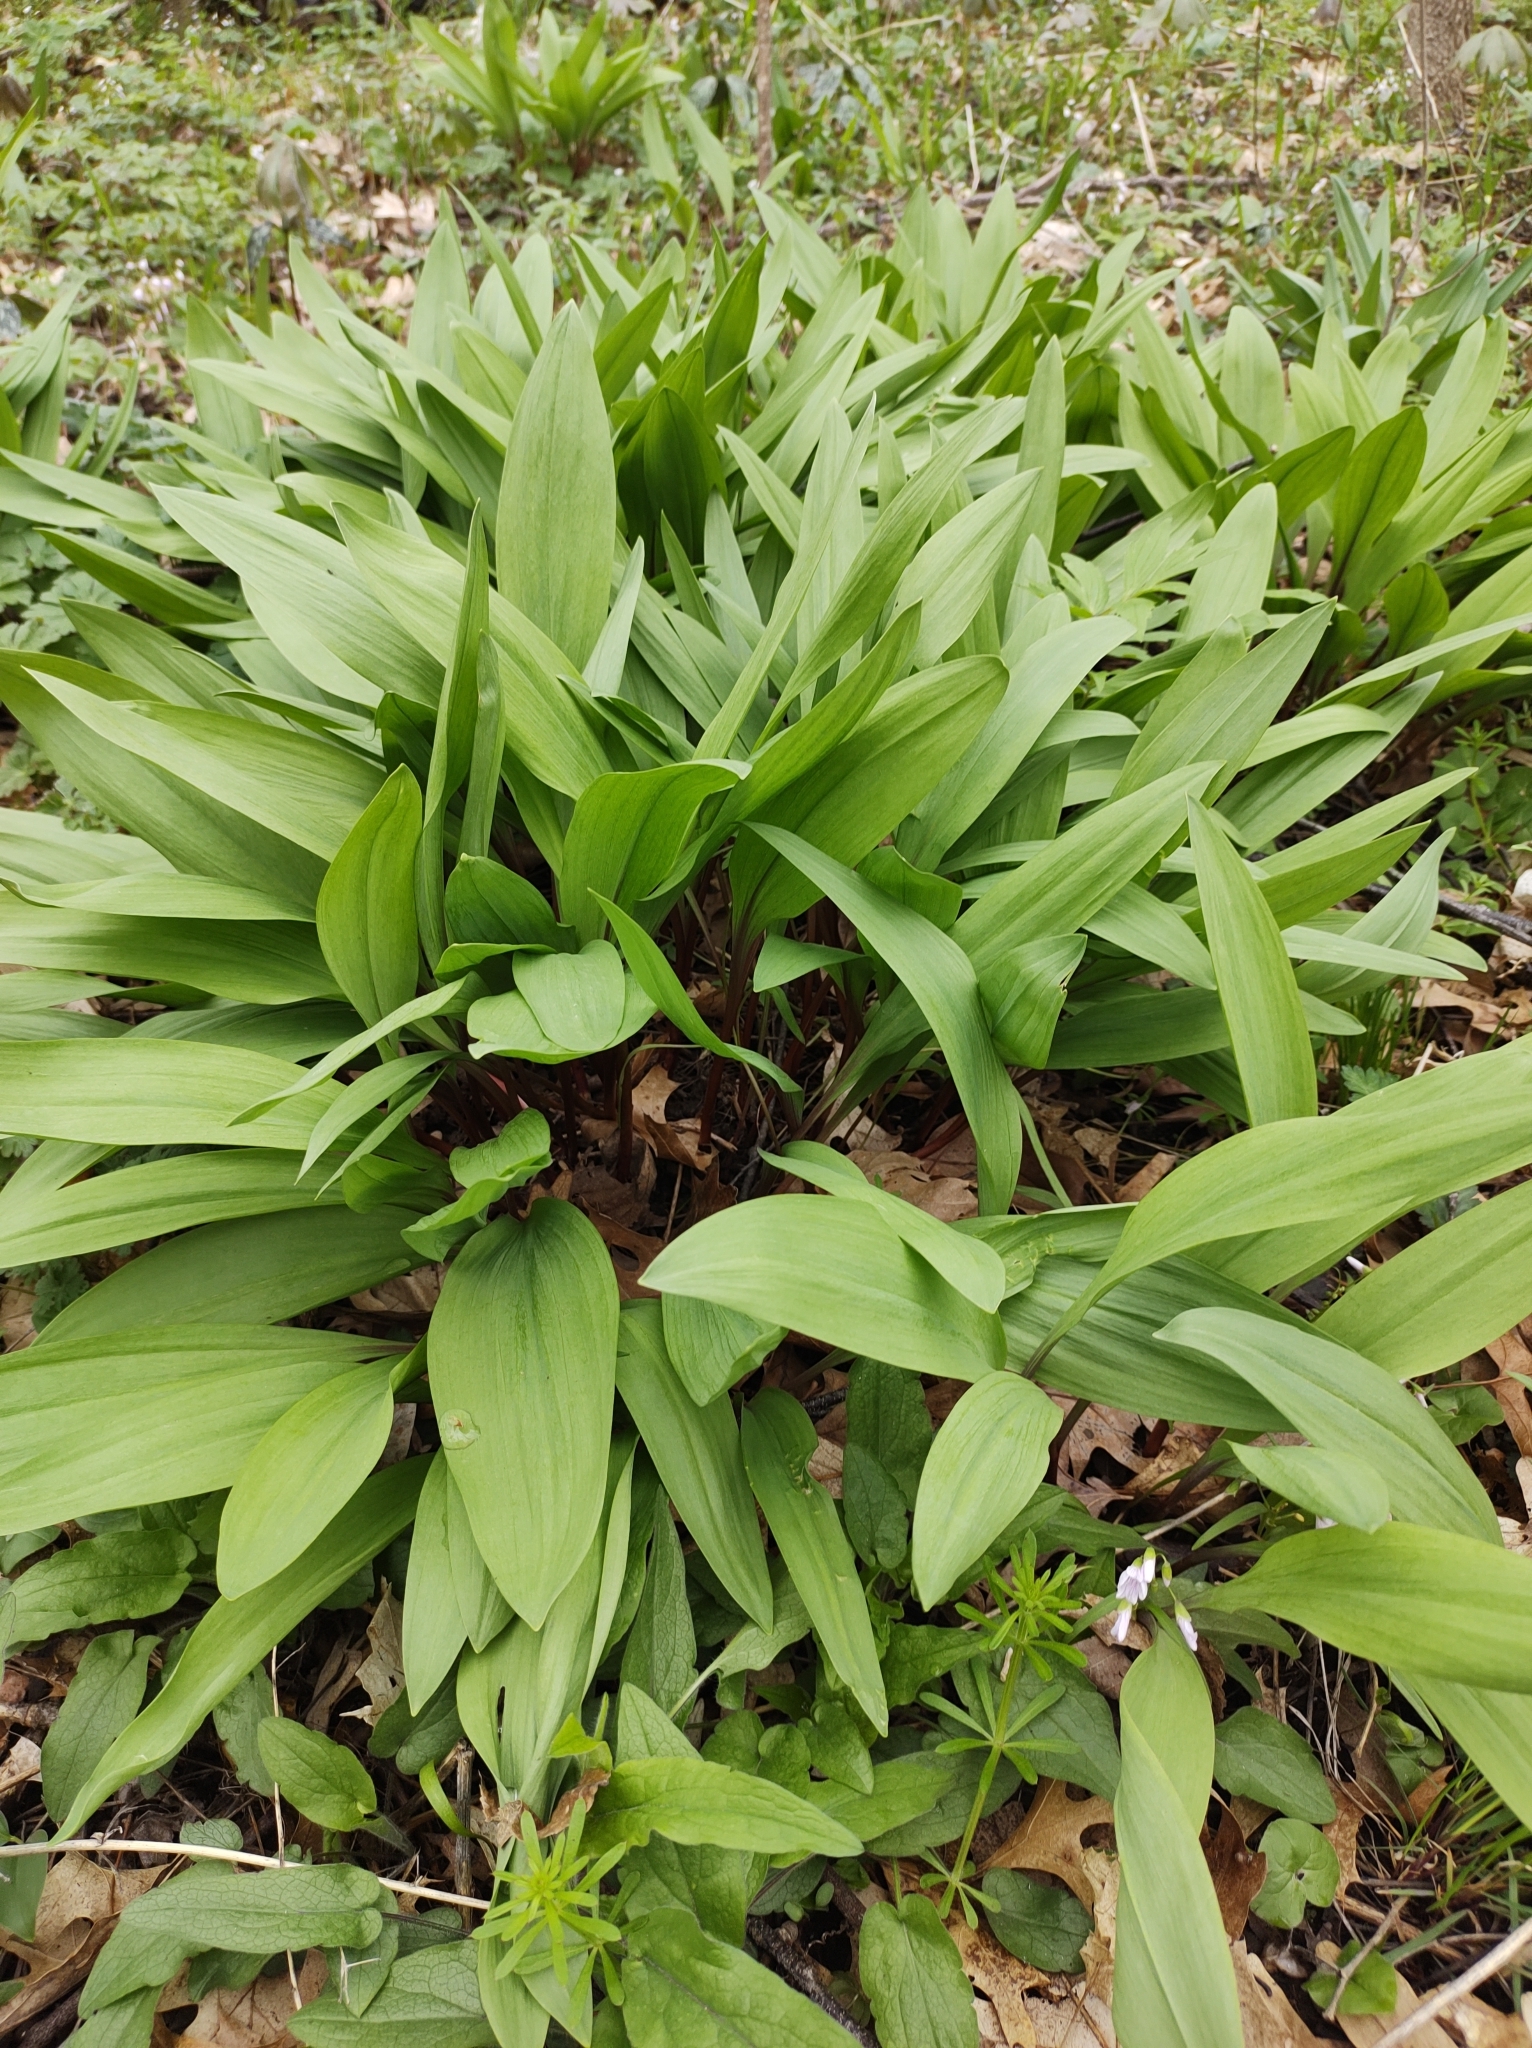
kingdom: Plantae
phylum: Tracheophyta
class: Liliopsida
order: Asparagales
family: Amaryllidaceae
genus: Allium
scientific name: Allium tricoccum
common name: Ramp
